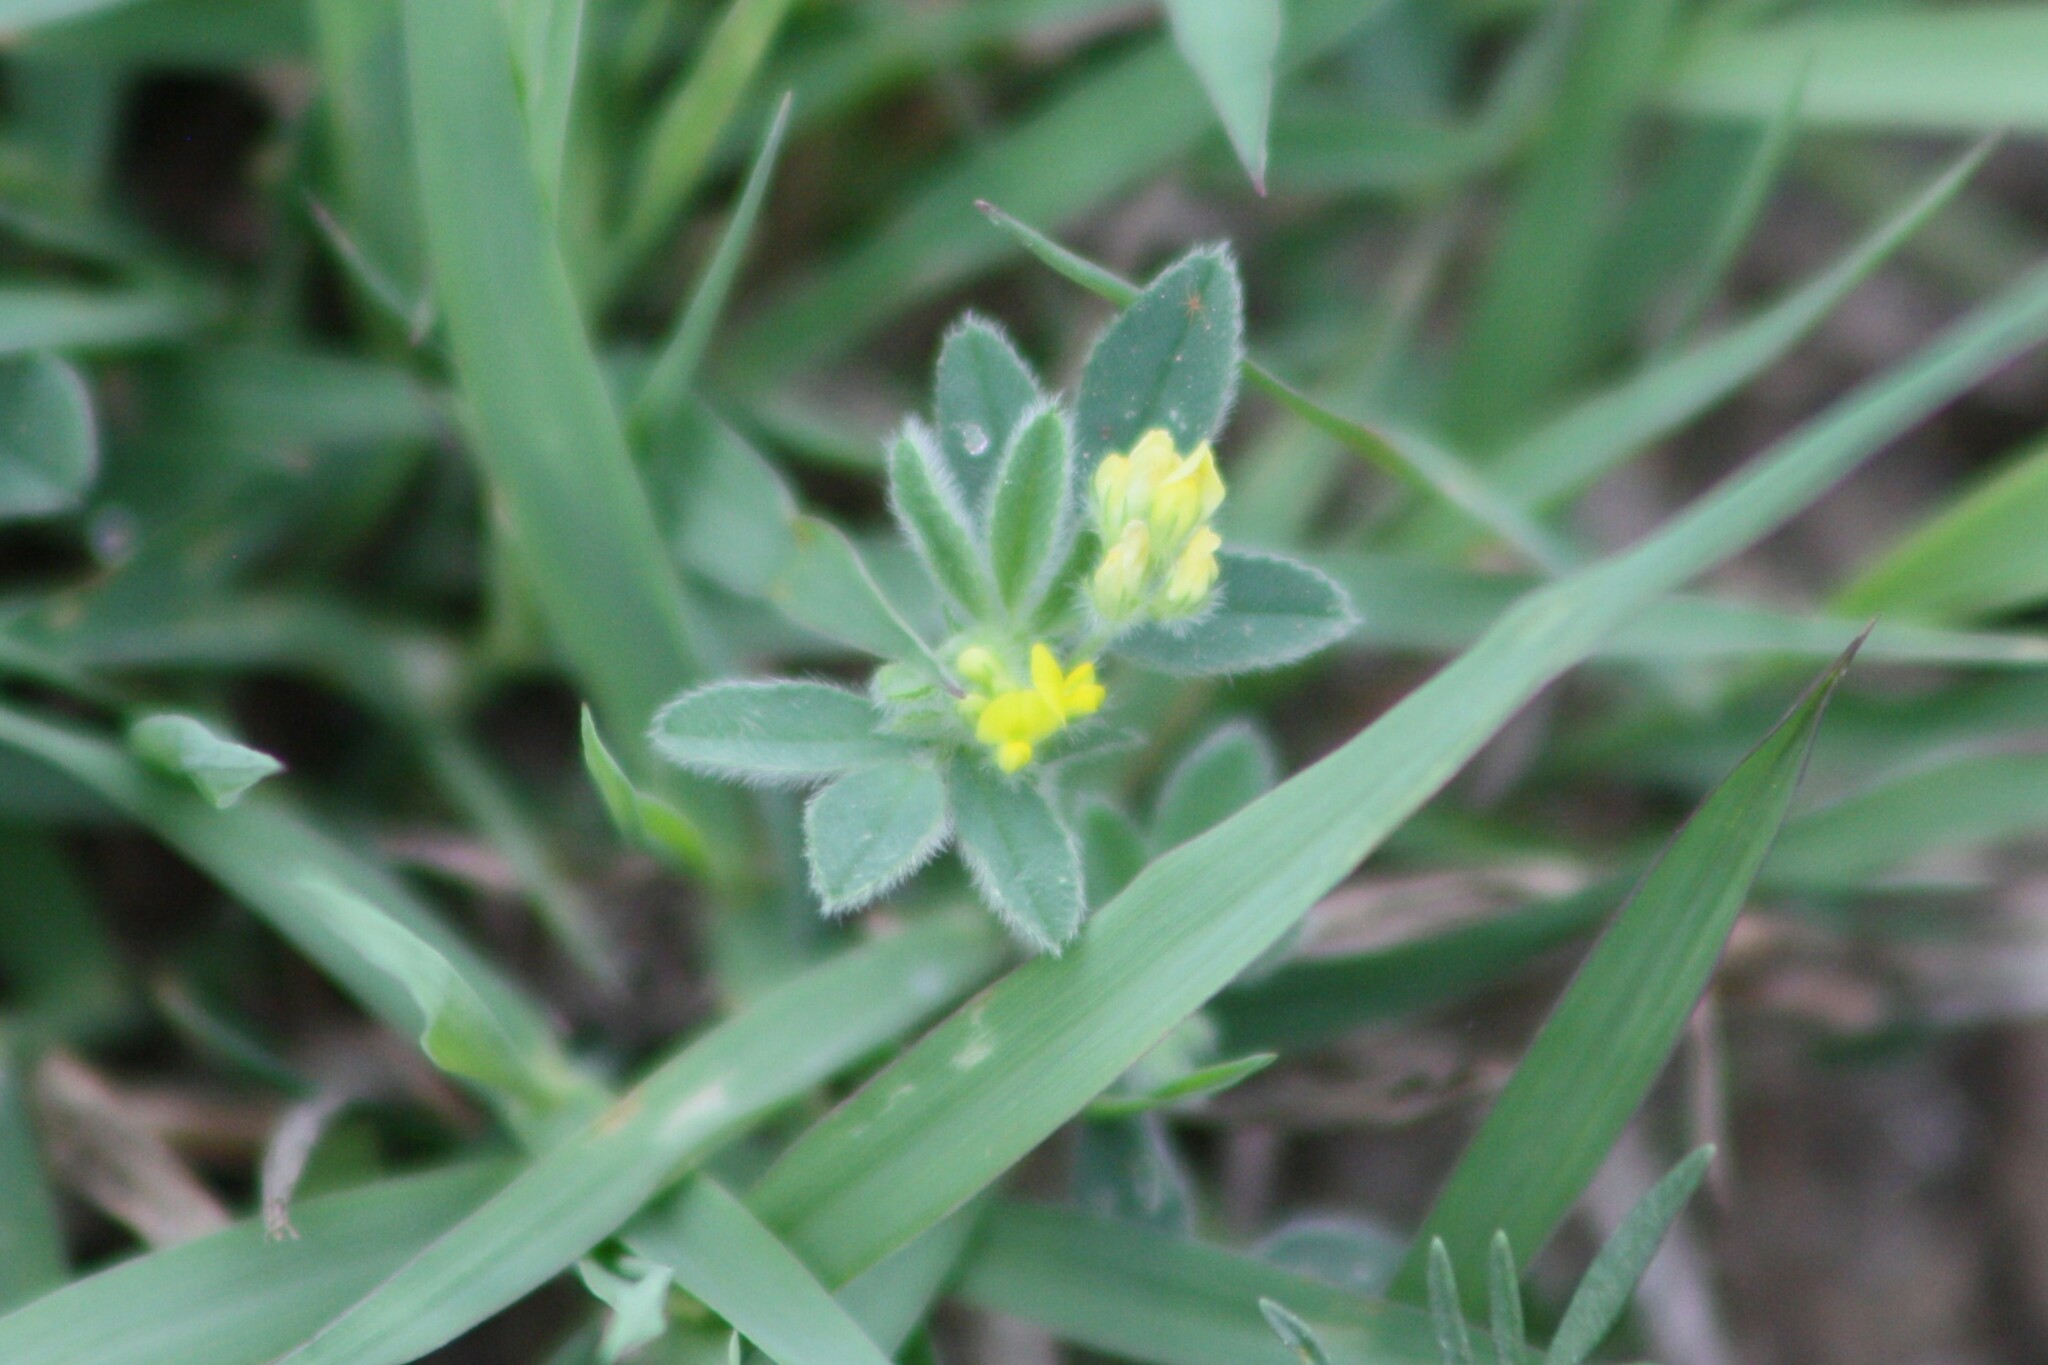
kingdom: Plantae
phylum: Tracheophyta
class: Magnoliopsida
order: Fabales
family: Fabaceae
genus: Medicago
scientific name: Medicago minima
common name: Little bur-clover
